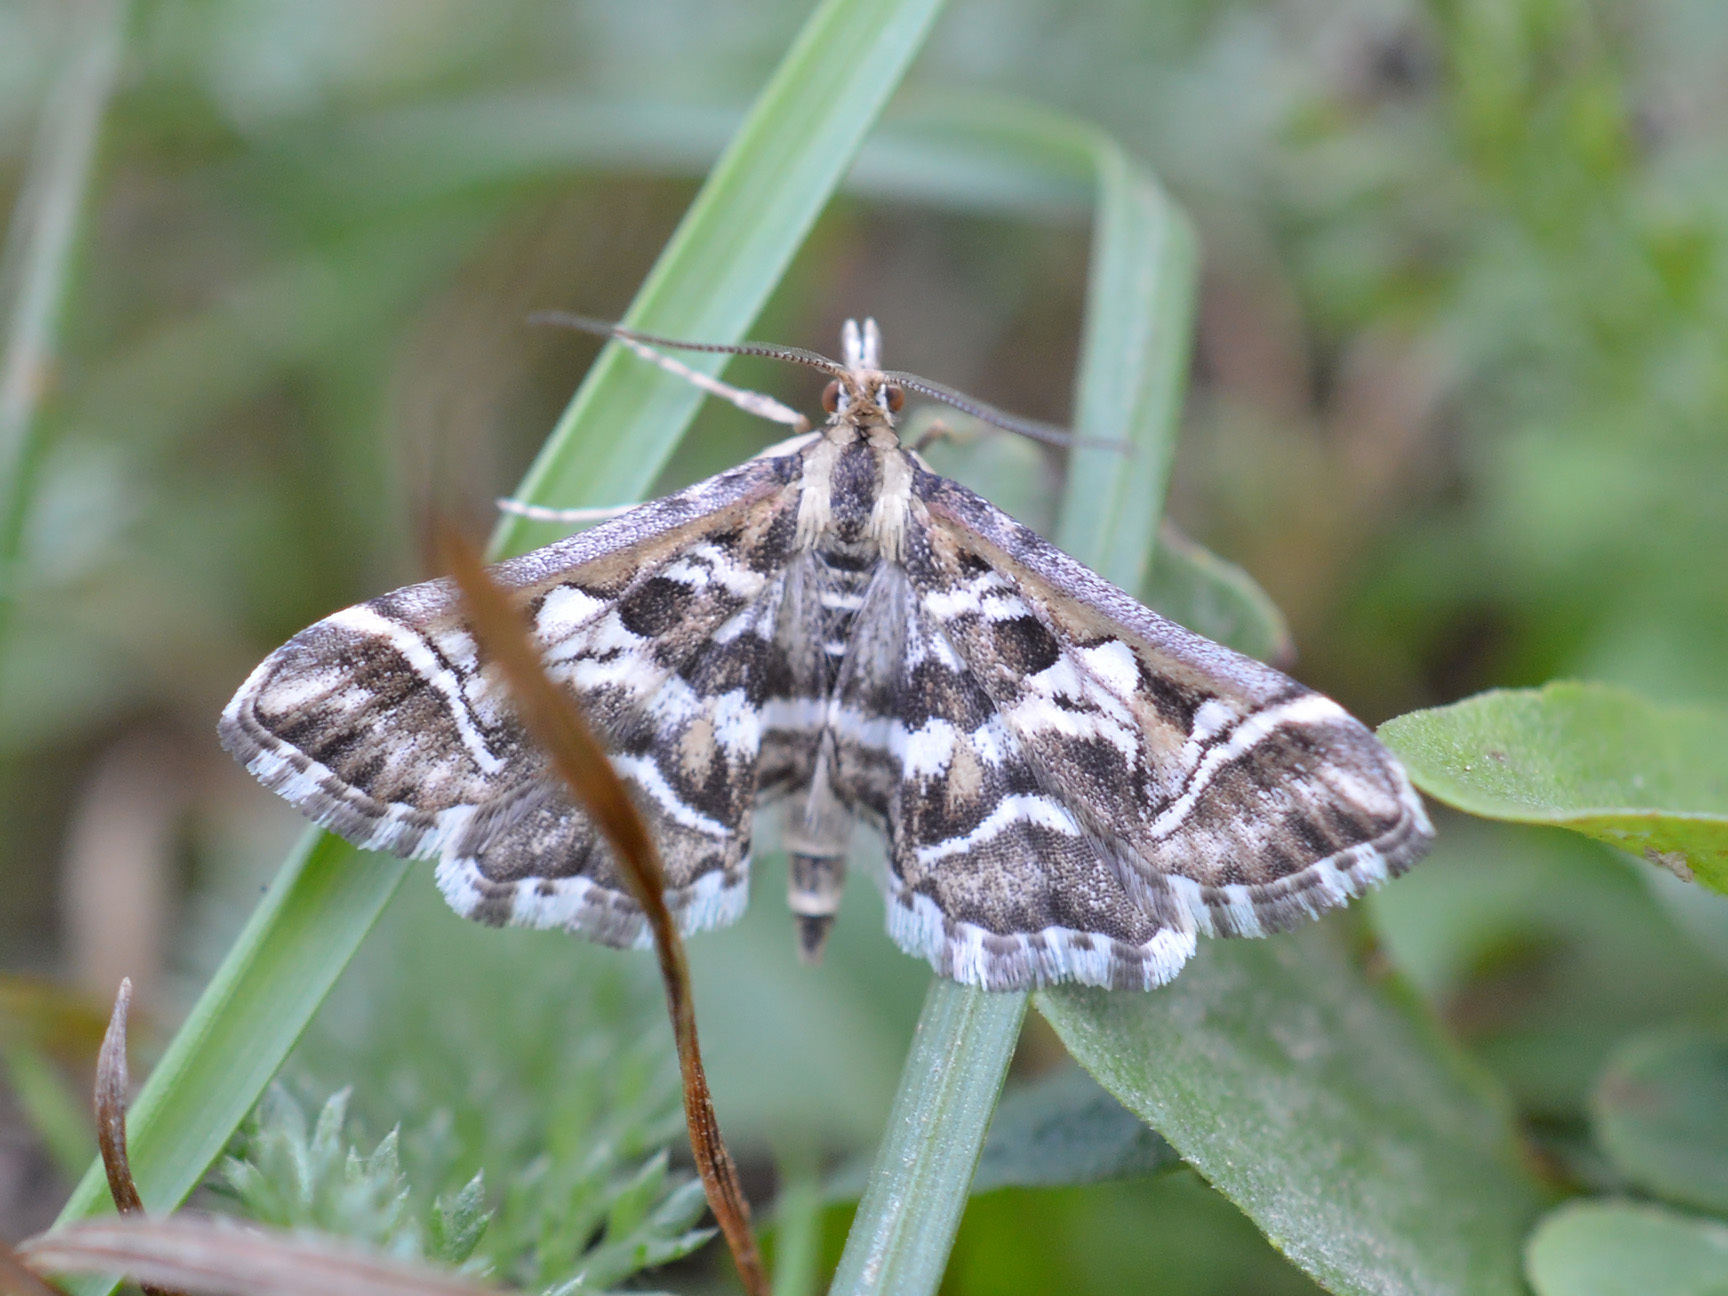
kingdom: Animalia
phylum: Arthropoda
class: Insecta
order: Lepidoptera
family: Crambidae
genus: Diasemia
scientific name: Diasemia reticularis
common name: Lettered china-mark
